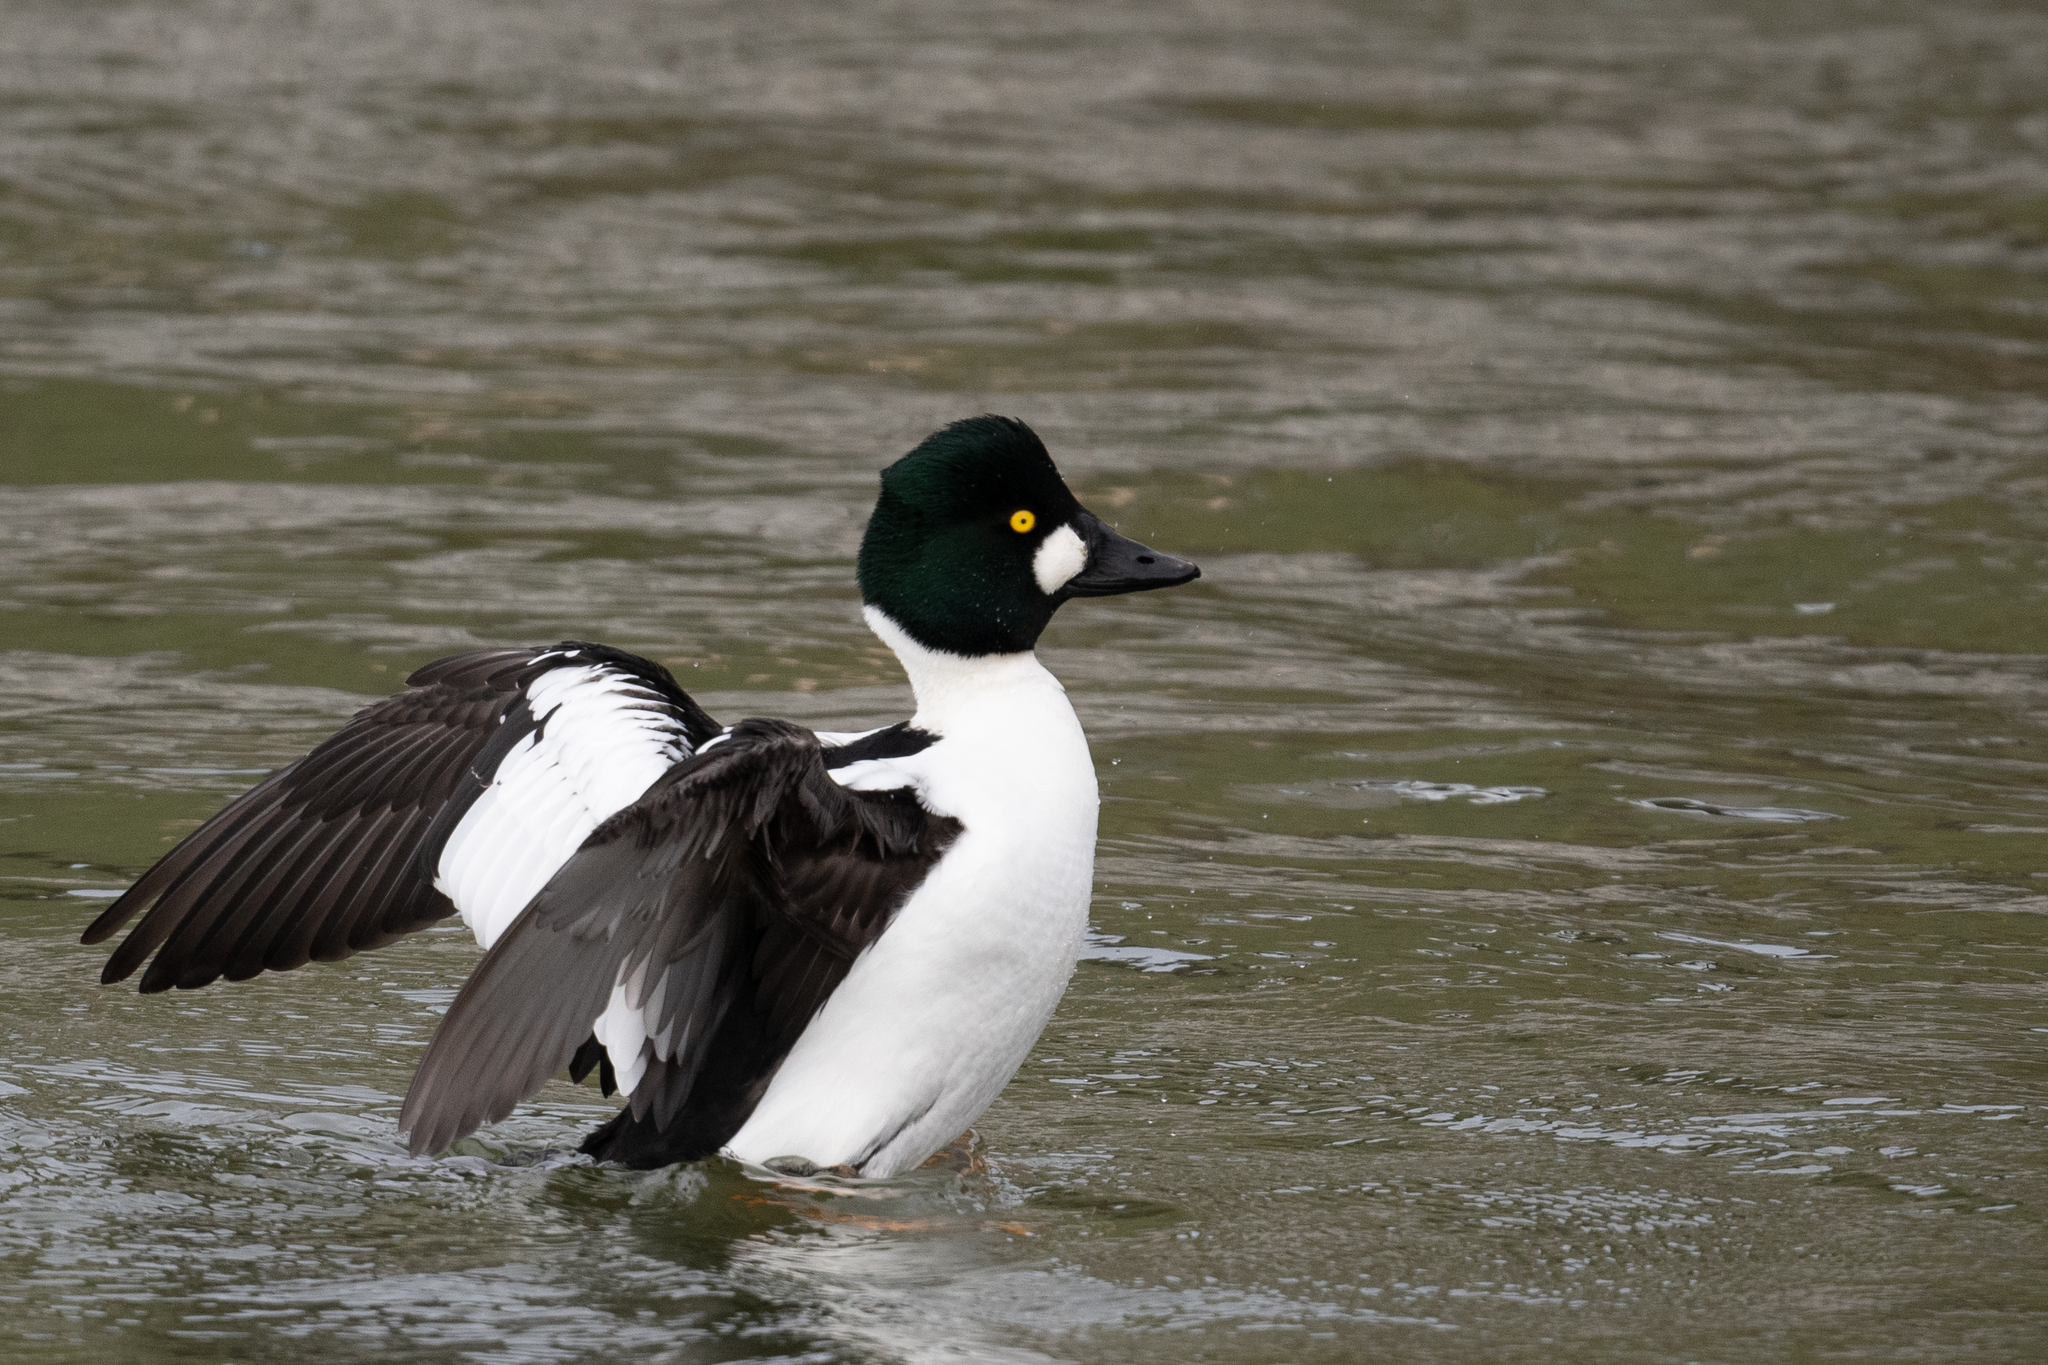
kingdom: Animalia
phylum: Chordata
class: Aves
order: Anseriformes
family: Anatidae
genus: Bucephala
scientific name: Bucephala clangula
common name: Common goldeneye
